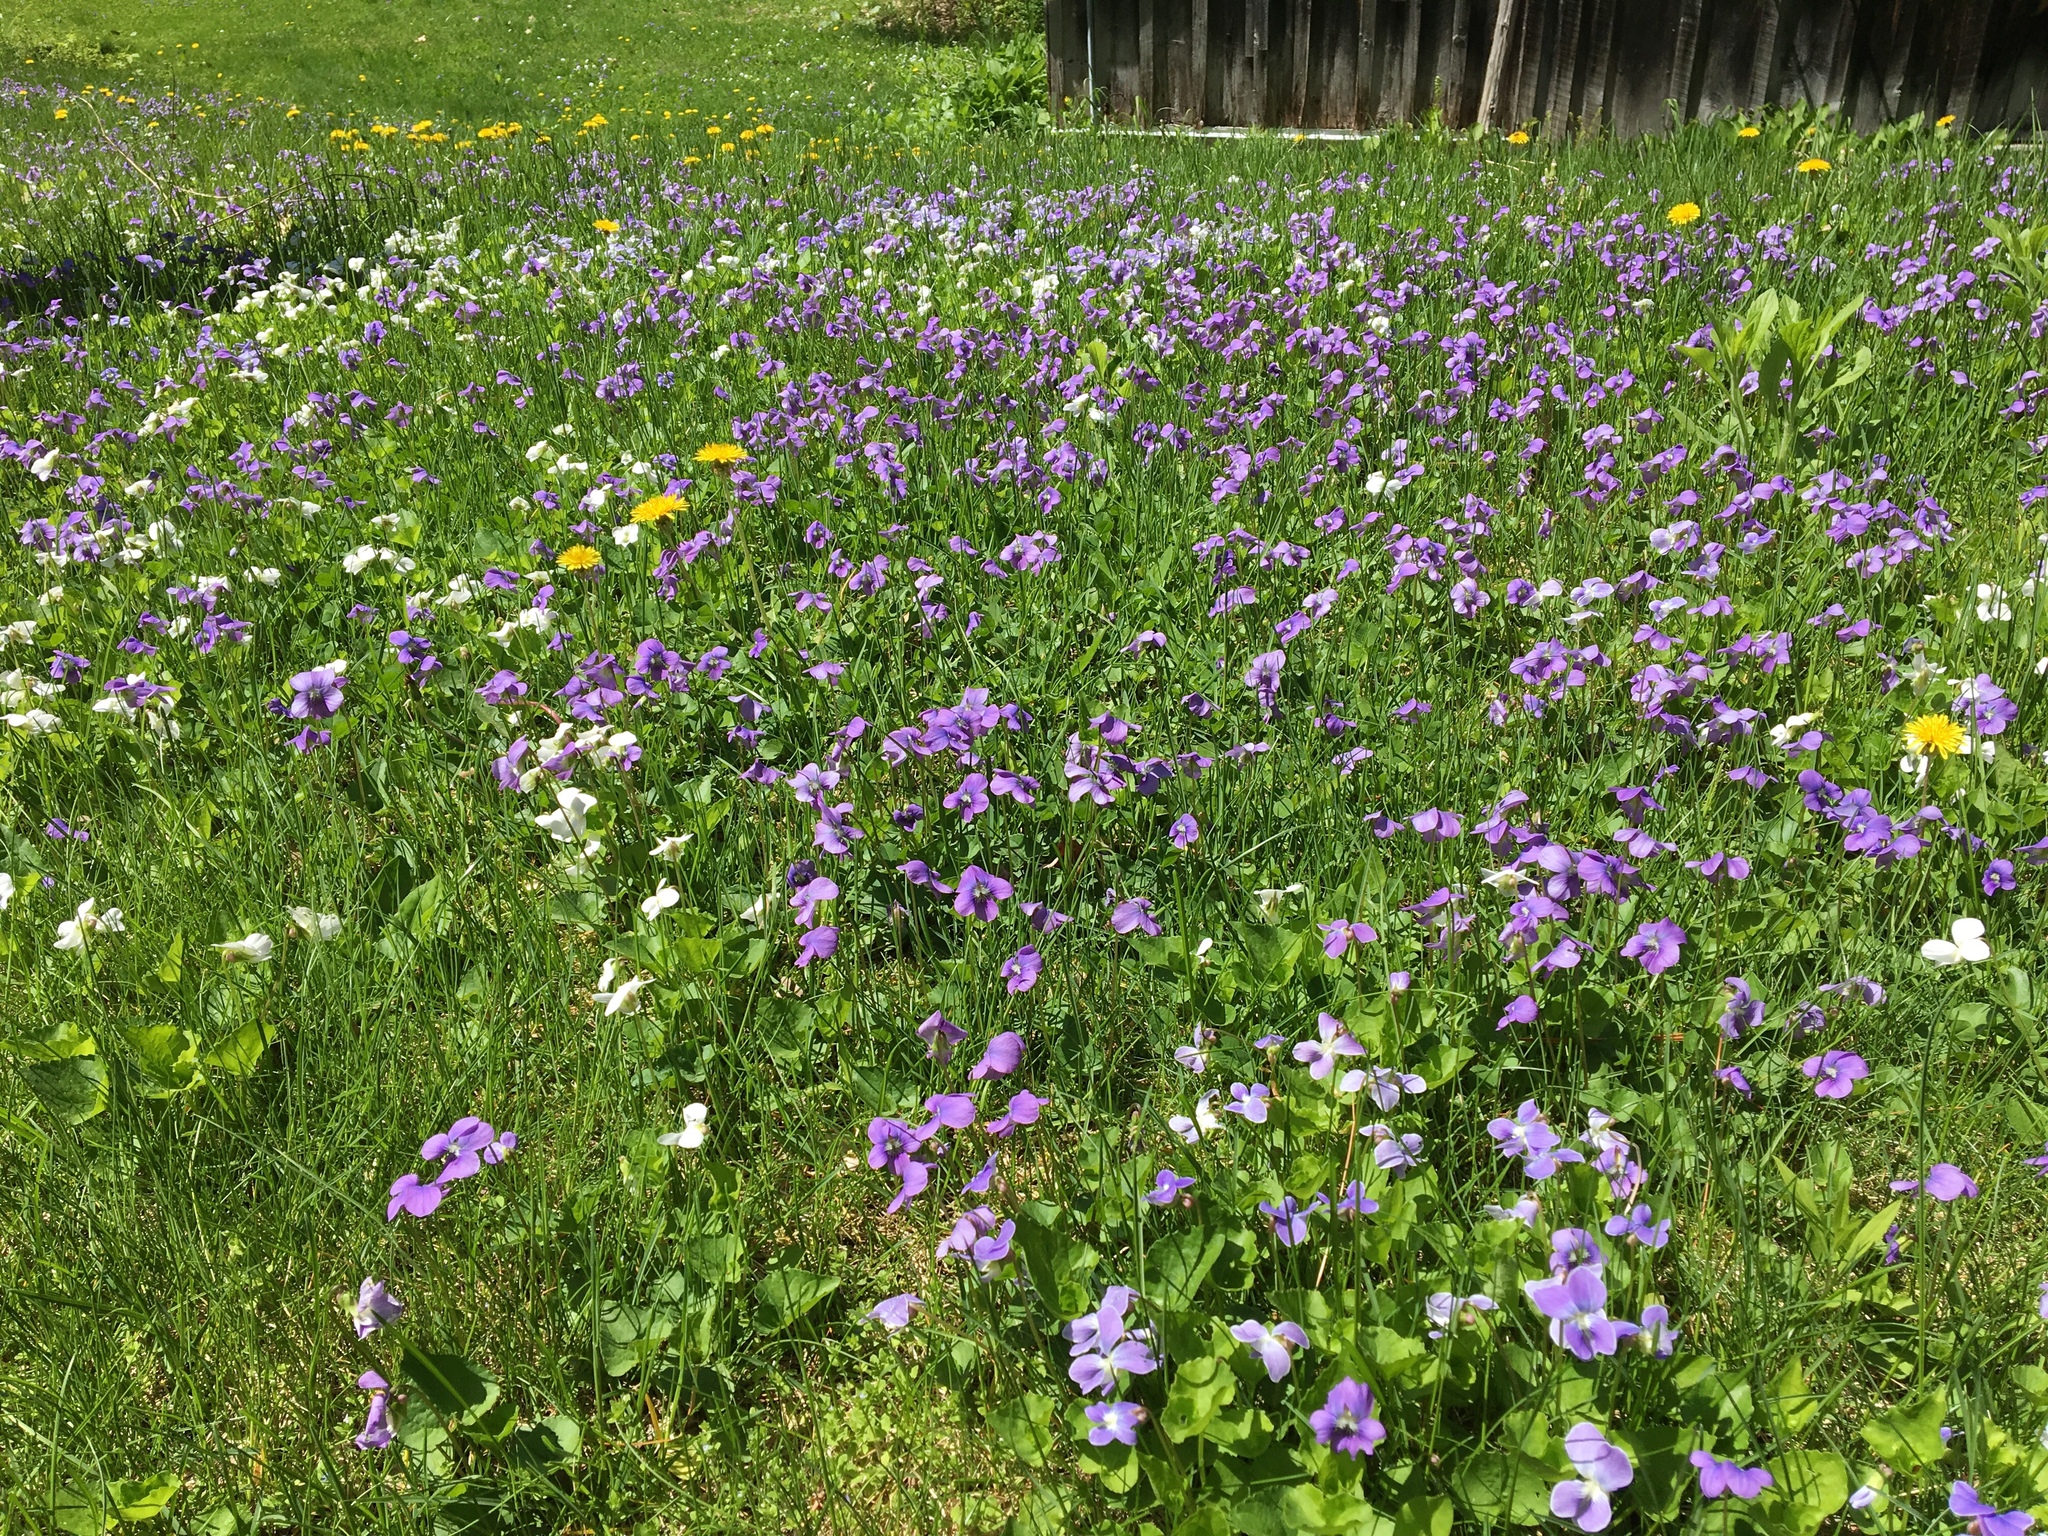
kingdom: Plantae
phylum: Tracheophyta
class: Magnoliopsida
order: Malpighiales
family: Violaceae
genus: Viola
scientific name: Viola sororia
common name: Dooryard violet
